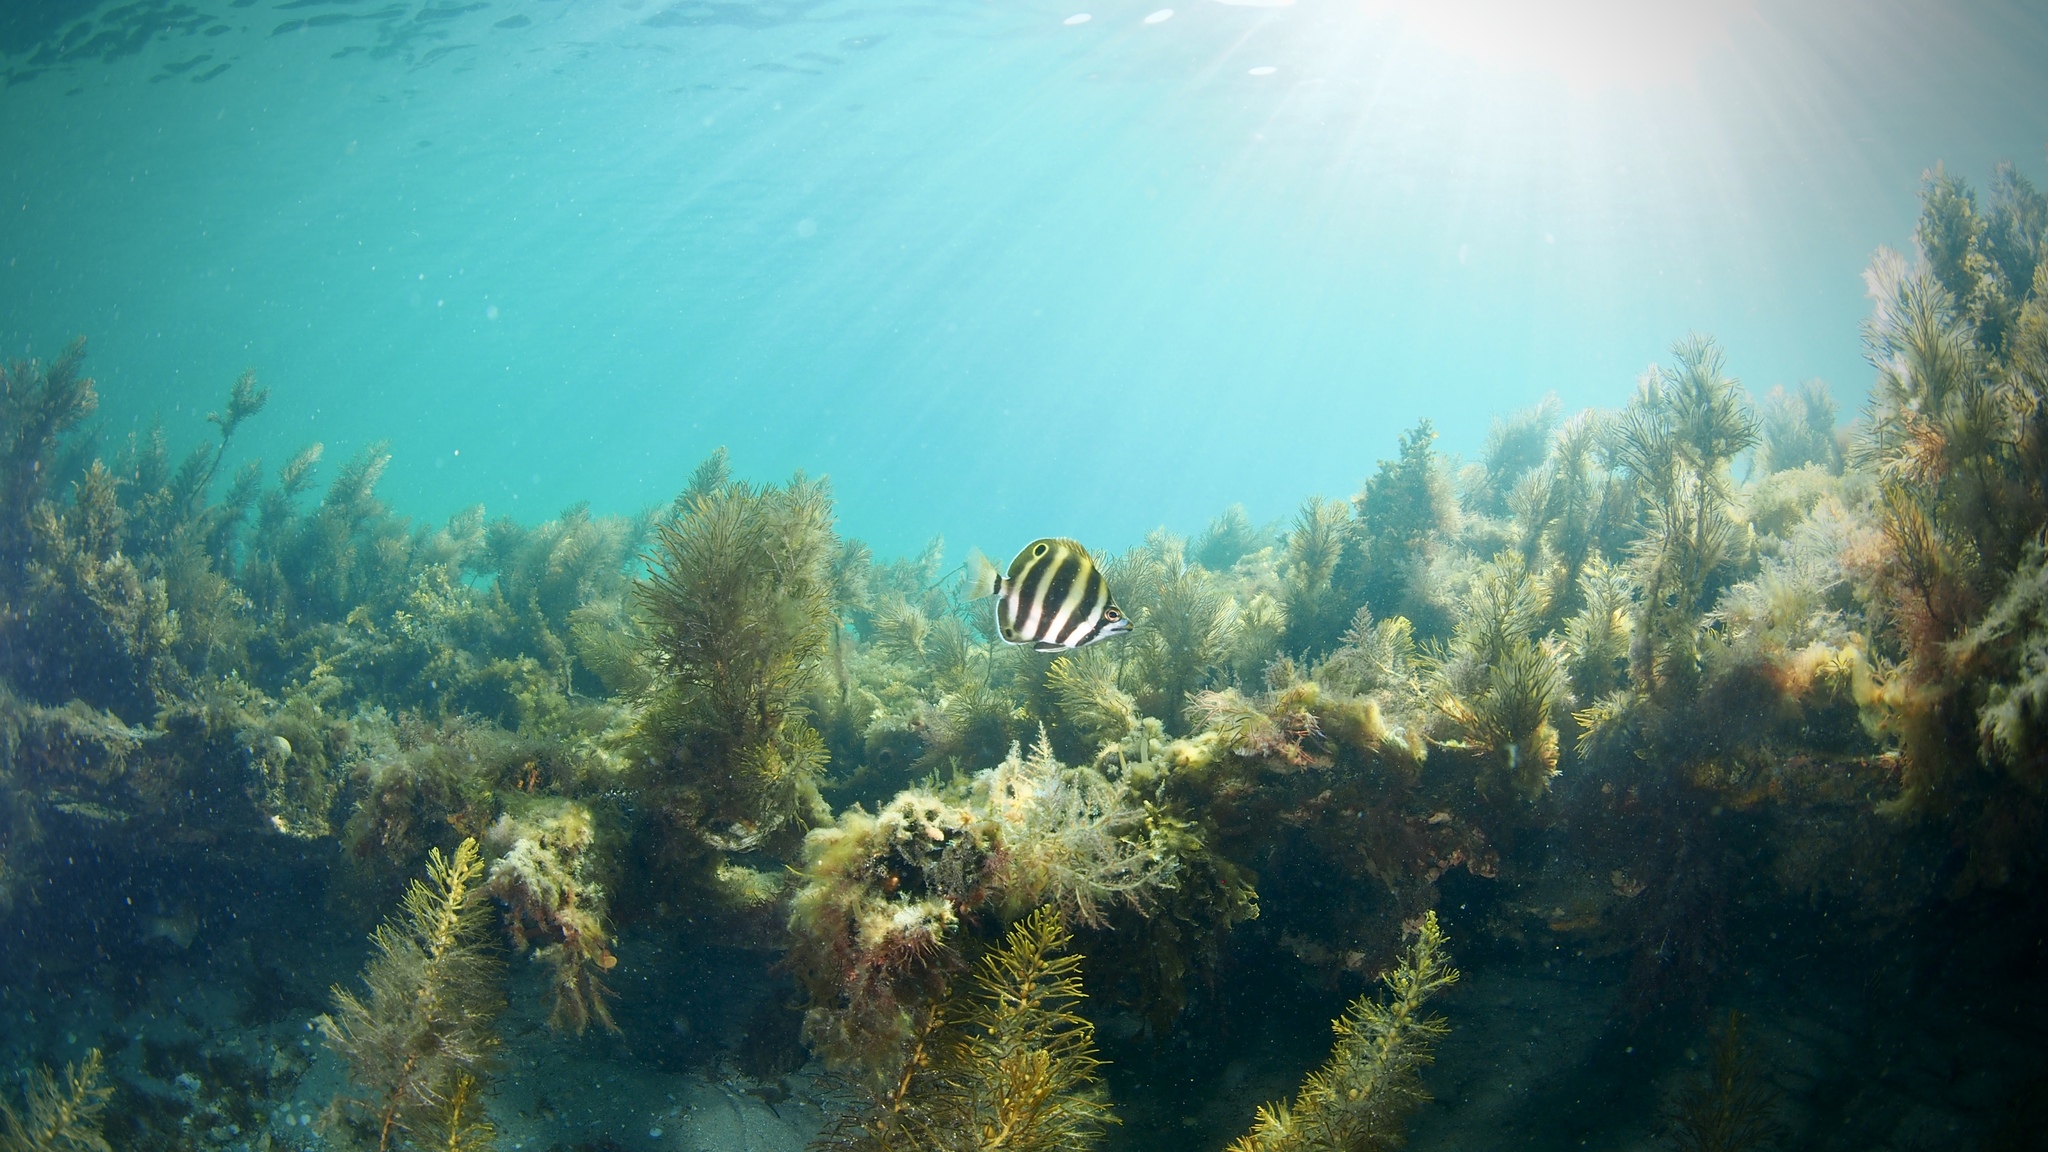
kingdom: Animalia
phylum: Chordata
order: Perciformes
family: Kyphosidae
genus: Tilodon
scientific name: Tilodon sexfasciatus
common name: Moonlighter
